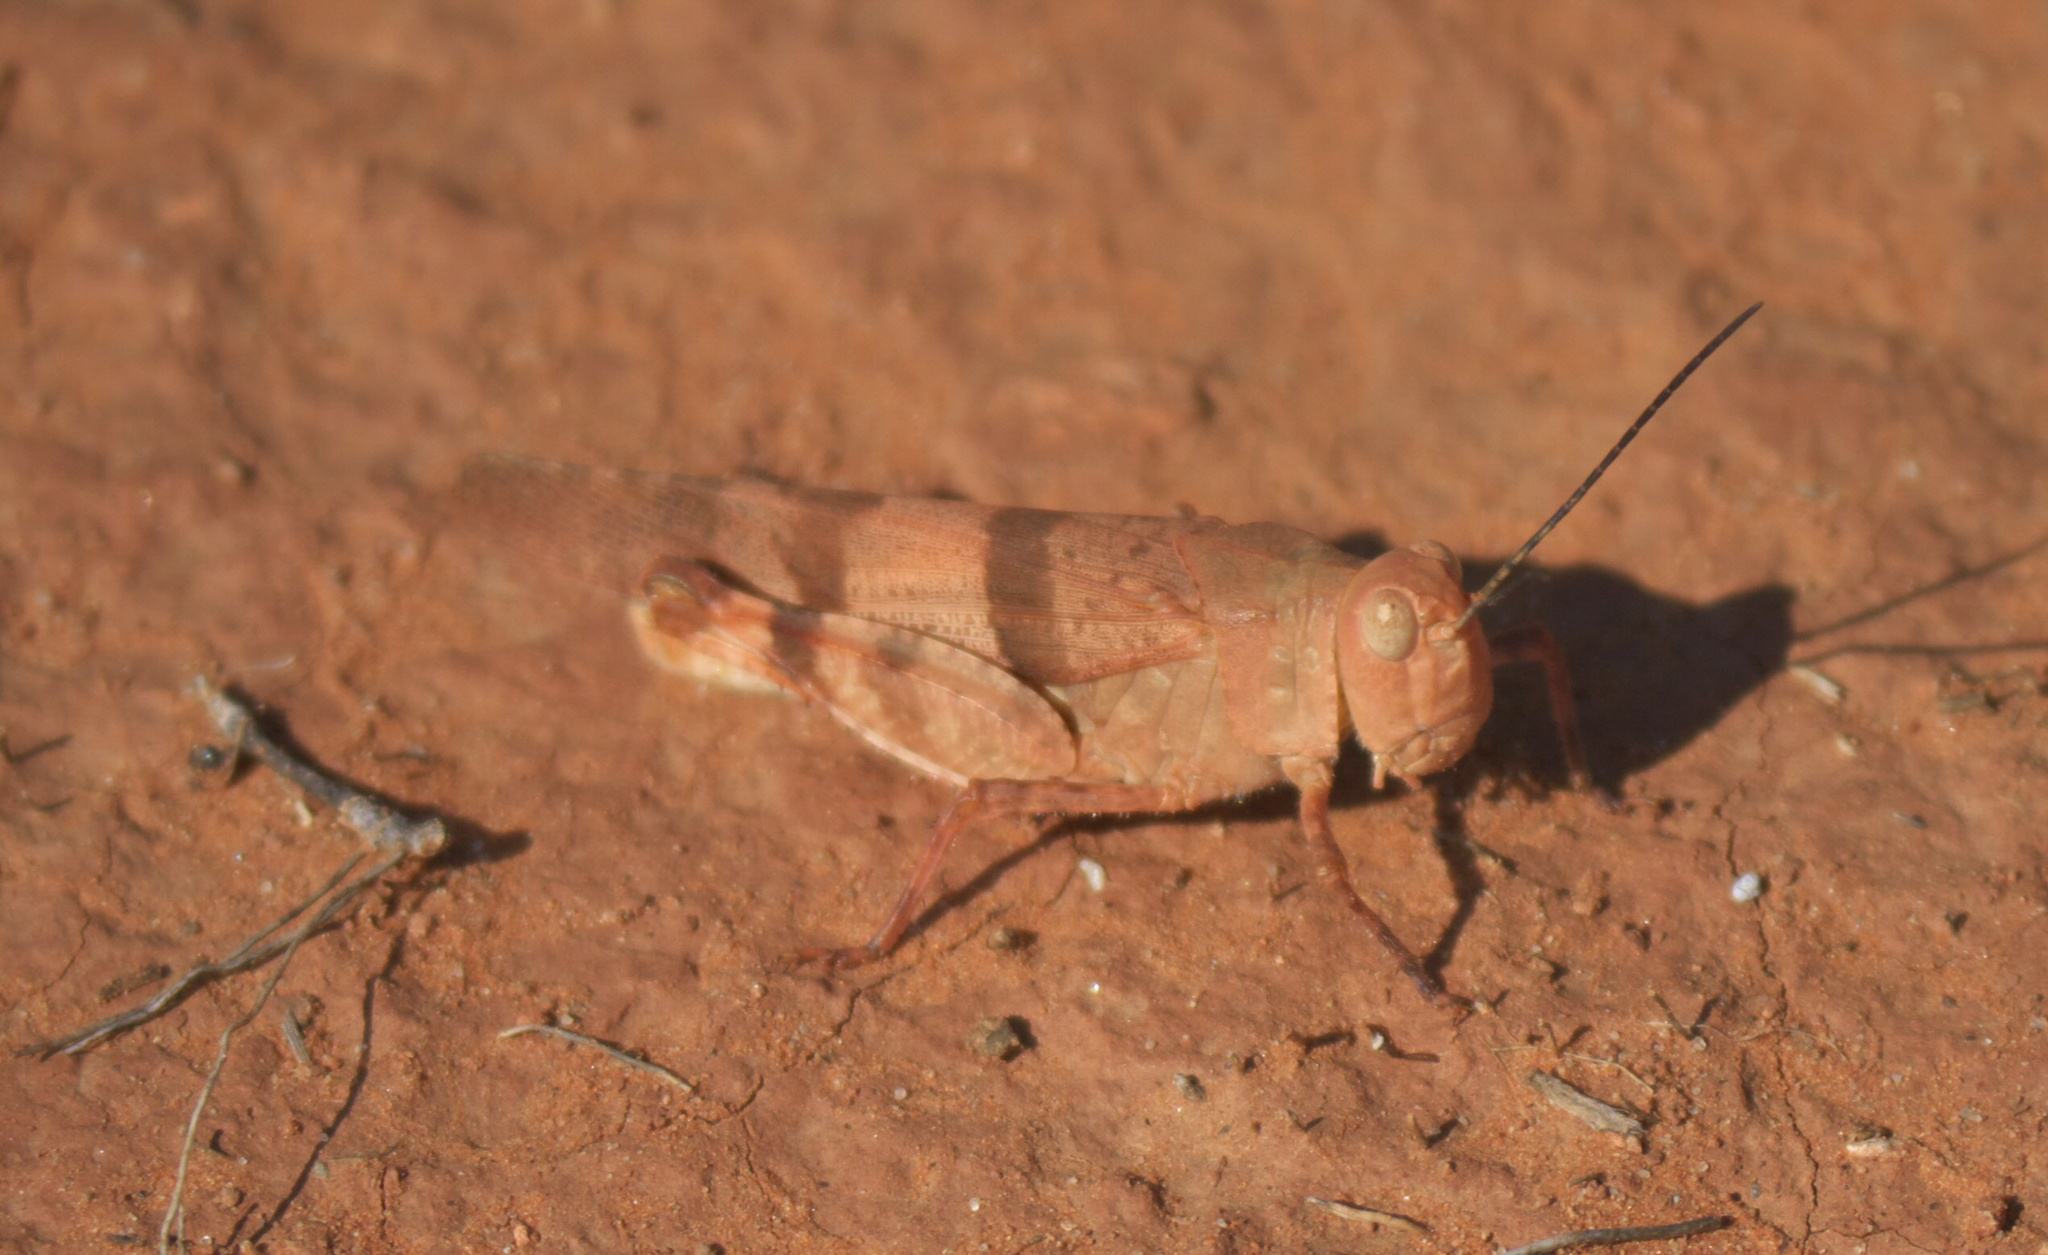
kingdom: Animalia
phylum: Arthropoda
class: Insecta
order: Orthoptera
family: Acrididae
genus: Hadrotettix
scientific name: Hadrotettix trifasciatus
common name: Threebanded grasshopper
